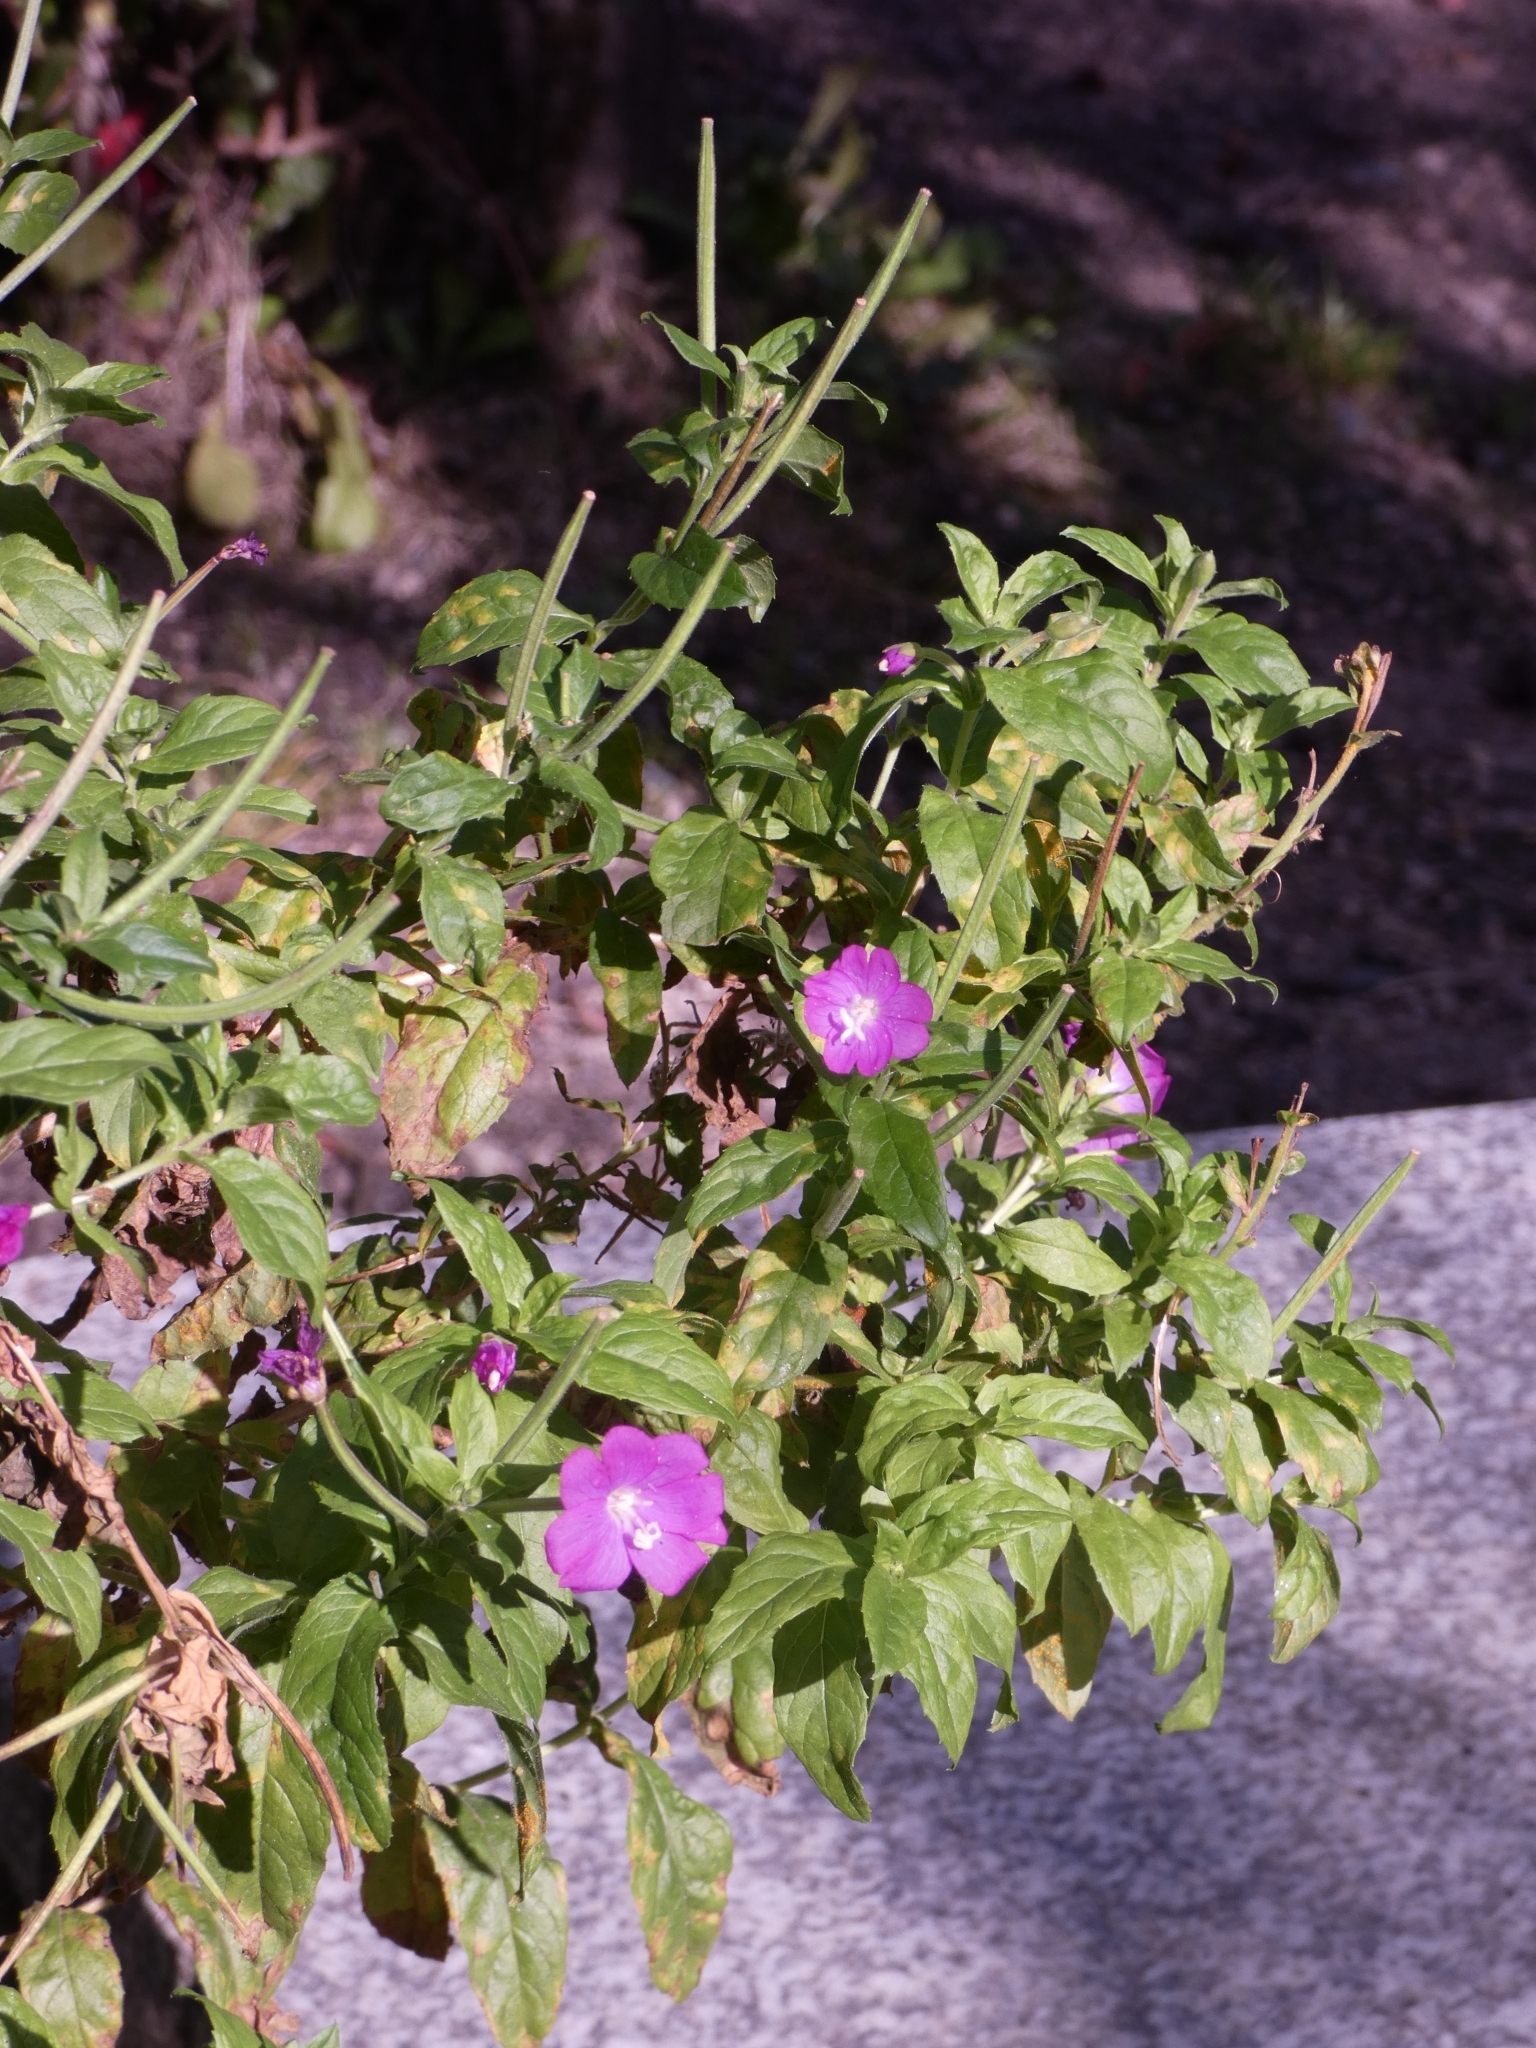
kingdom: Plantae
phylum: Tracheophyta
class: Magnoliopsida
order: Myrtales
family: Onagraceae
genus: Epilobium
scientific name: Epilobium hirsutum
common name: Great willowherb
